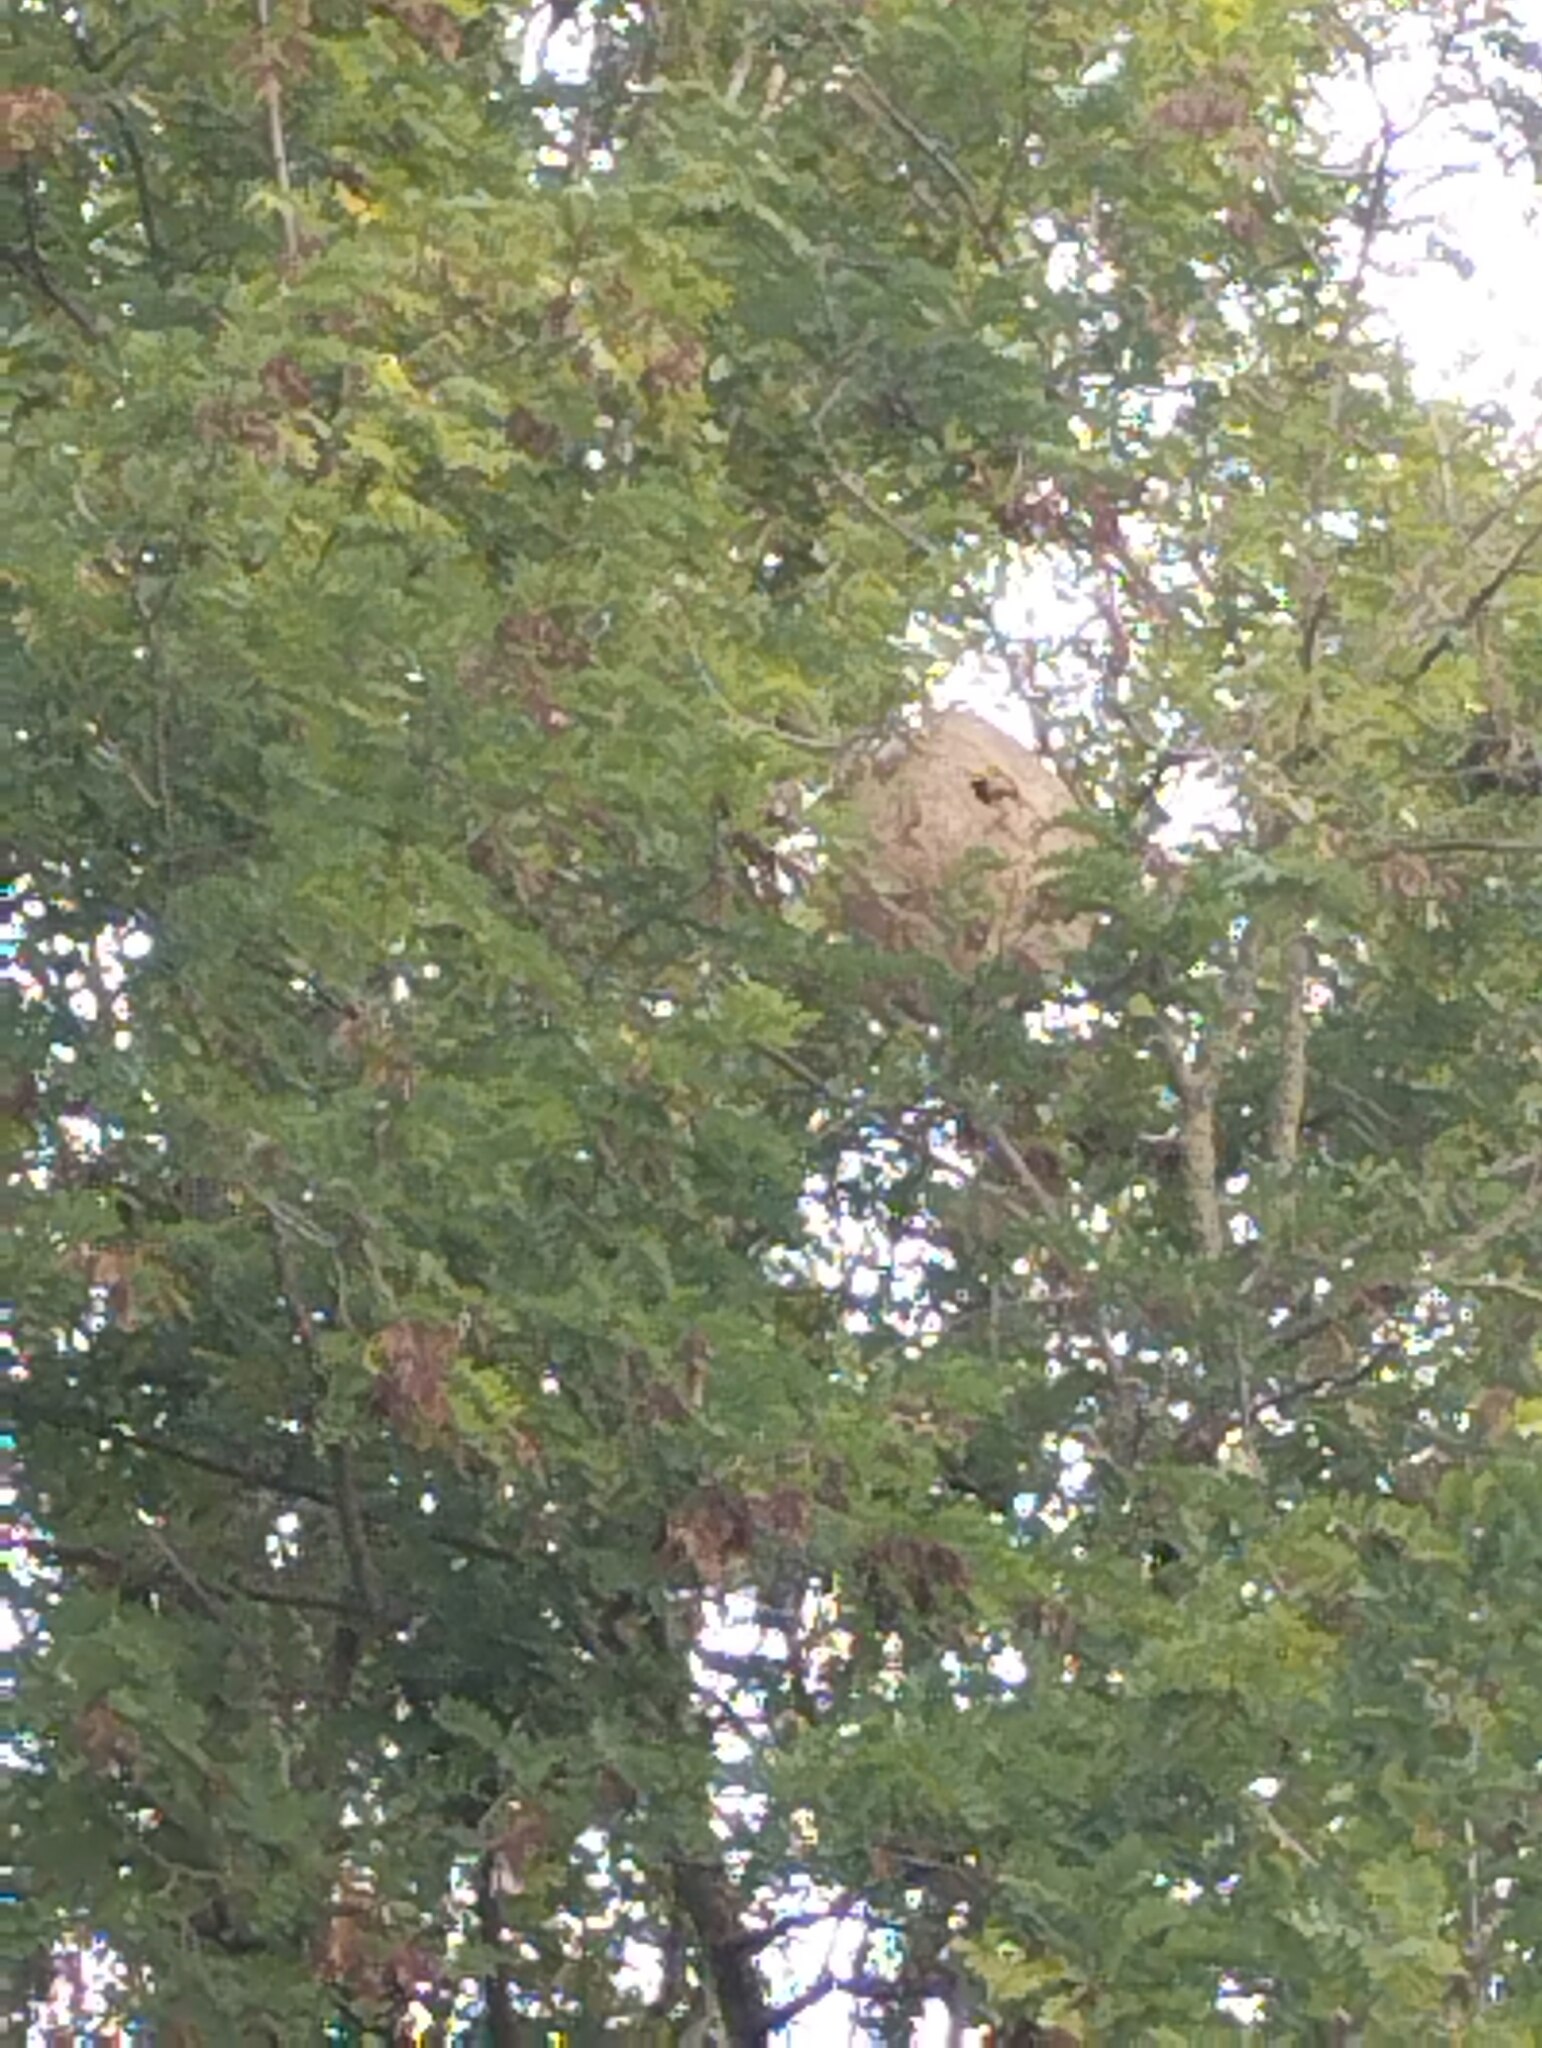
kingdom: Animalia
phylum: Arthropoda
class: Insecta
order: Hymenoptera
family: Vespidae
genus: Vespa
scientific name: Vespa velutina
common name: Asian hornet
